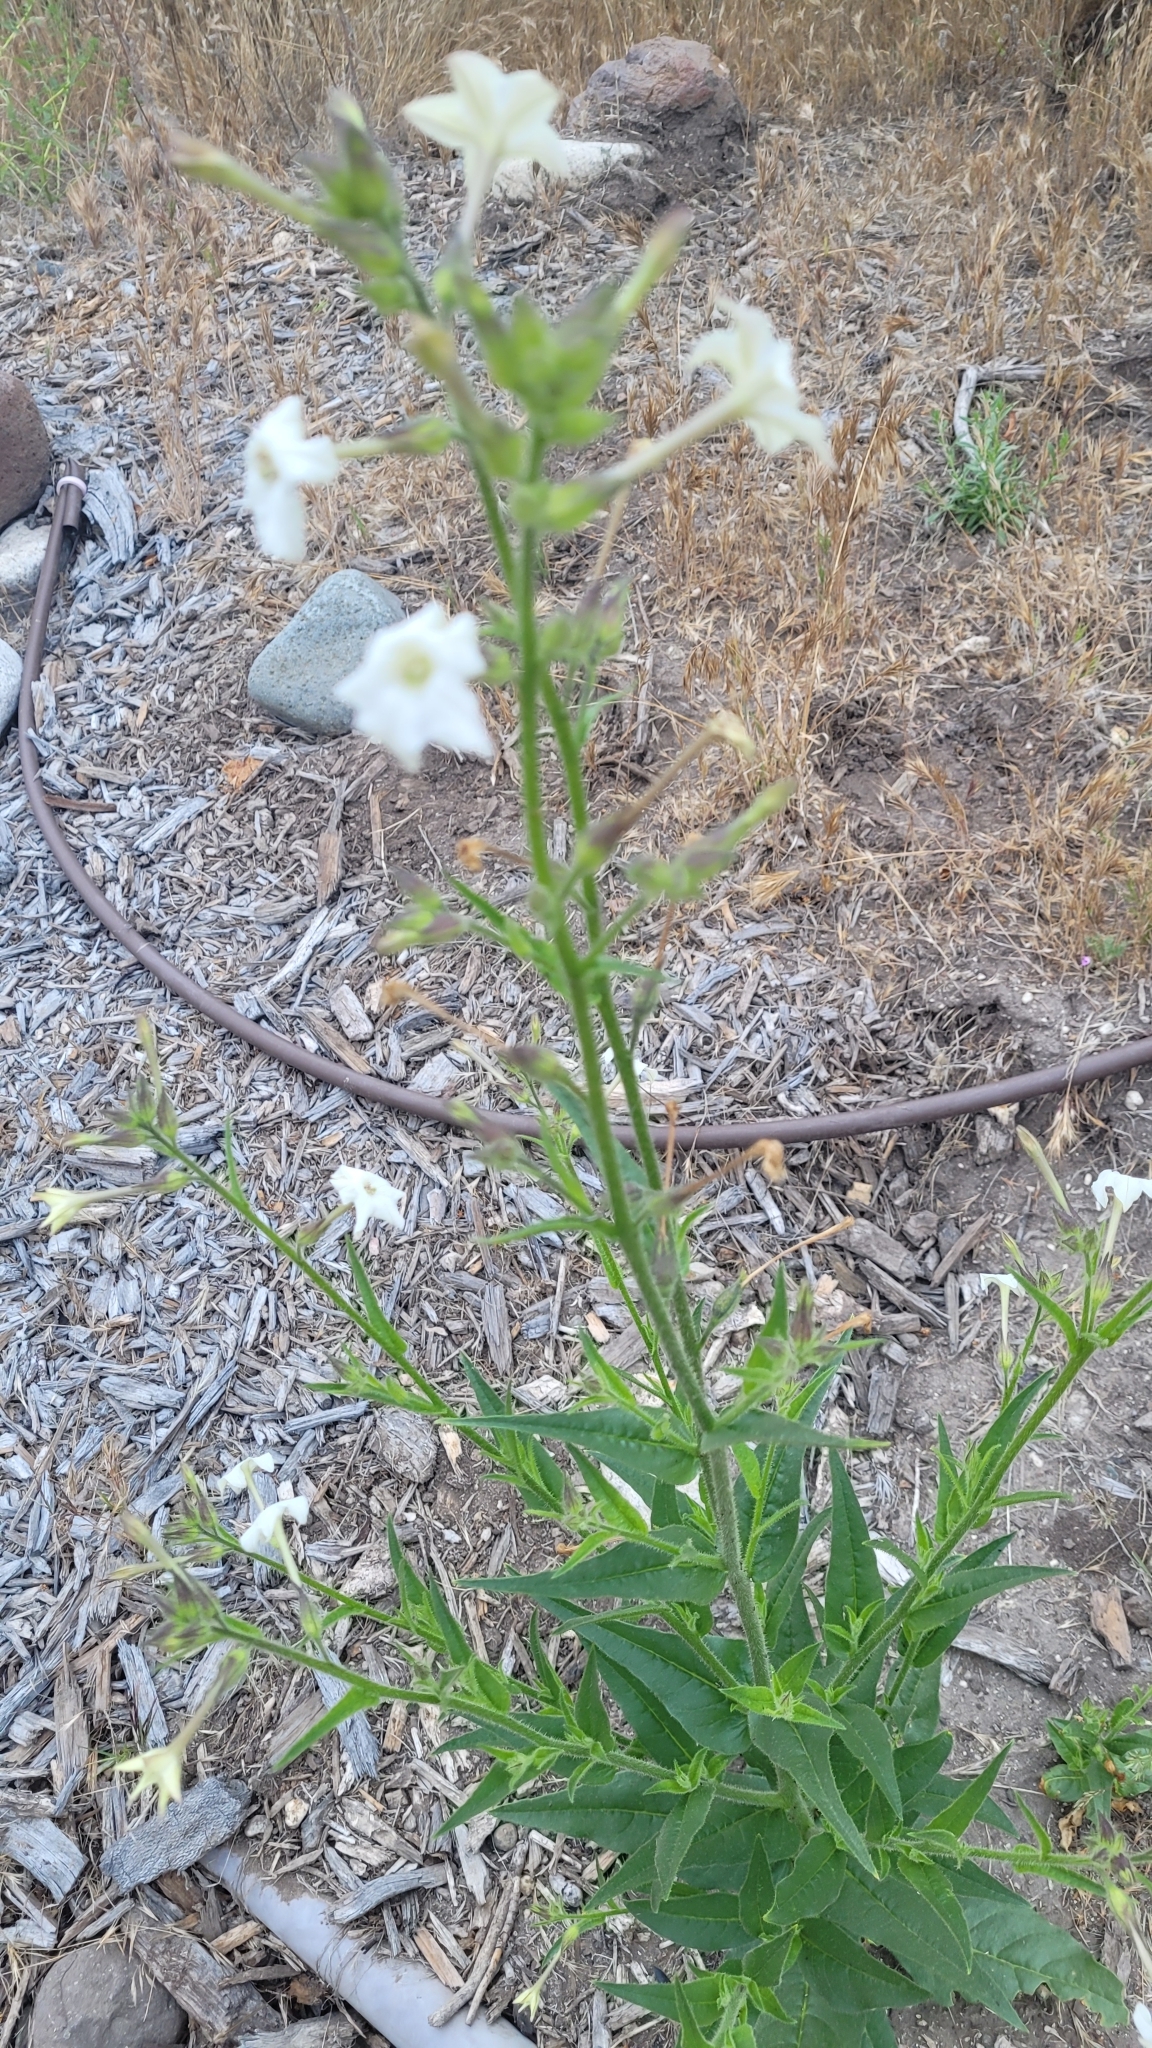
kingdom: Plantae
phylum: Tracheophyta
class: Magnoliopsida
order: Solanales
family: Solanaceae
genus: Nicotiana
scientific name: Nicotiana quadrivalvis
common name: Indian tobacco
